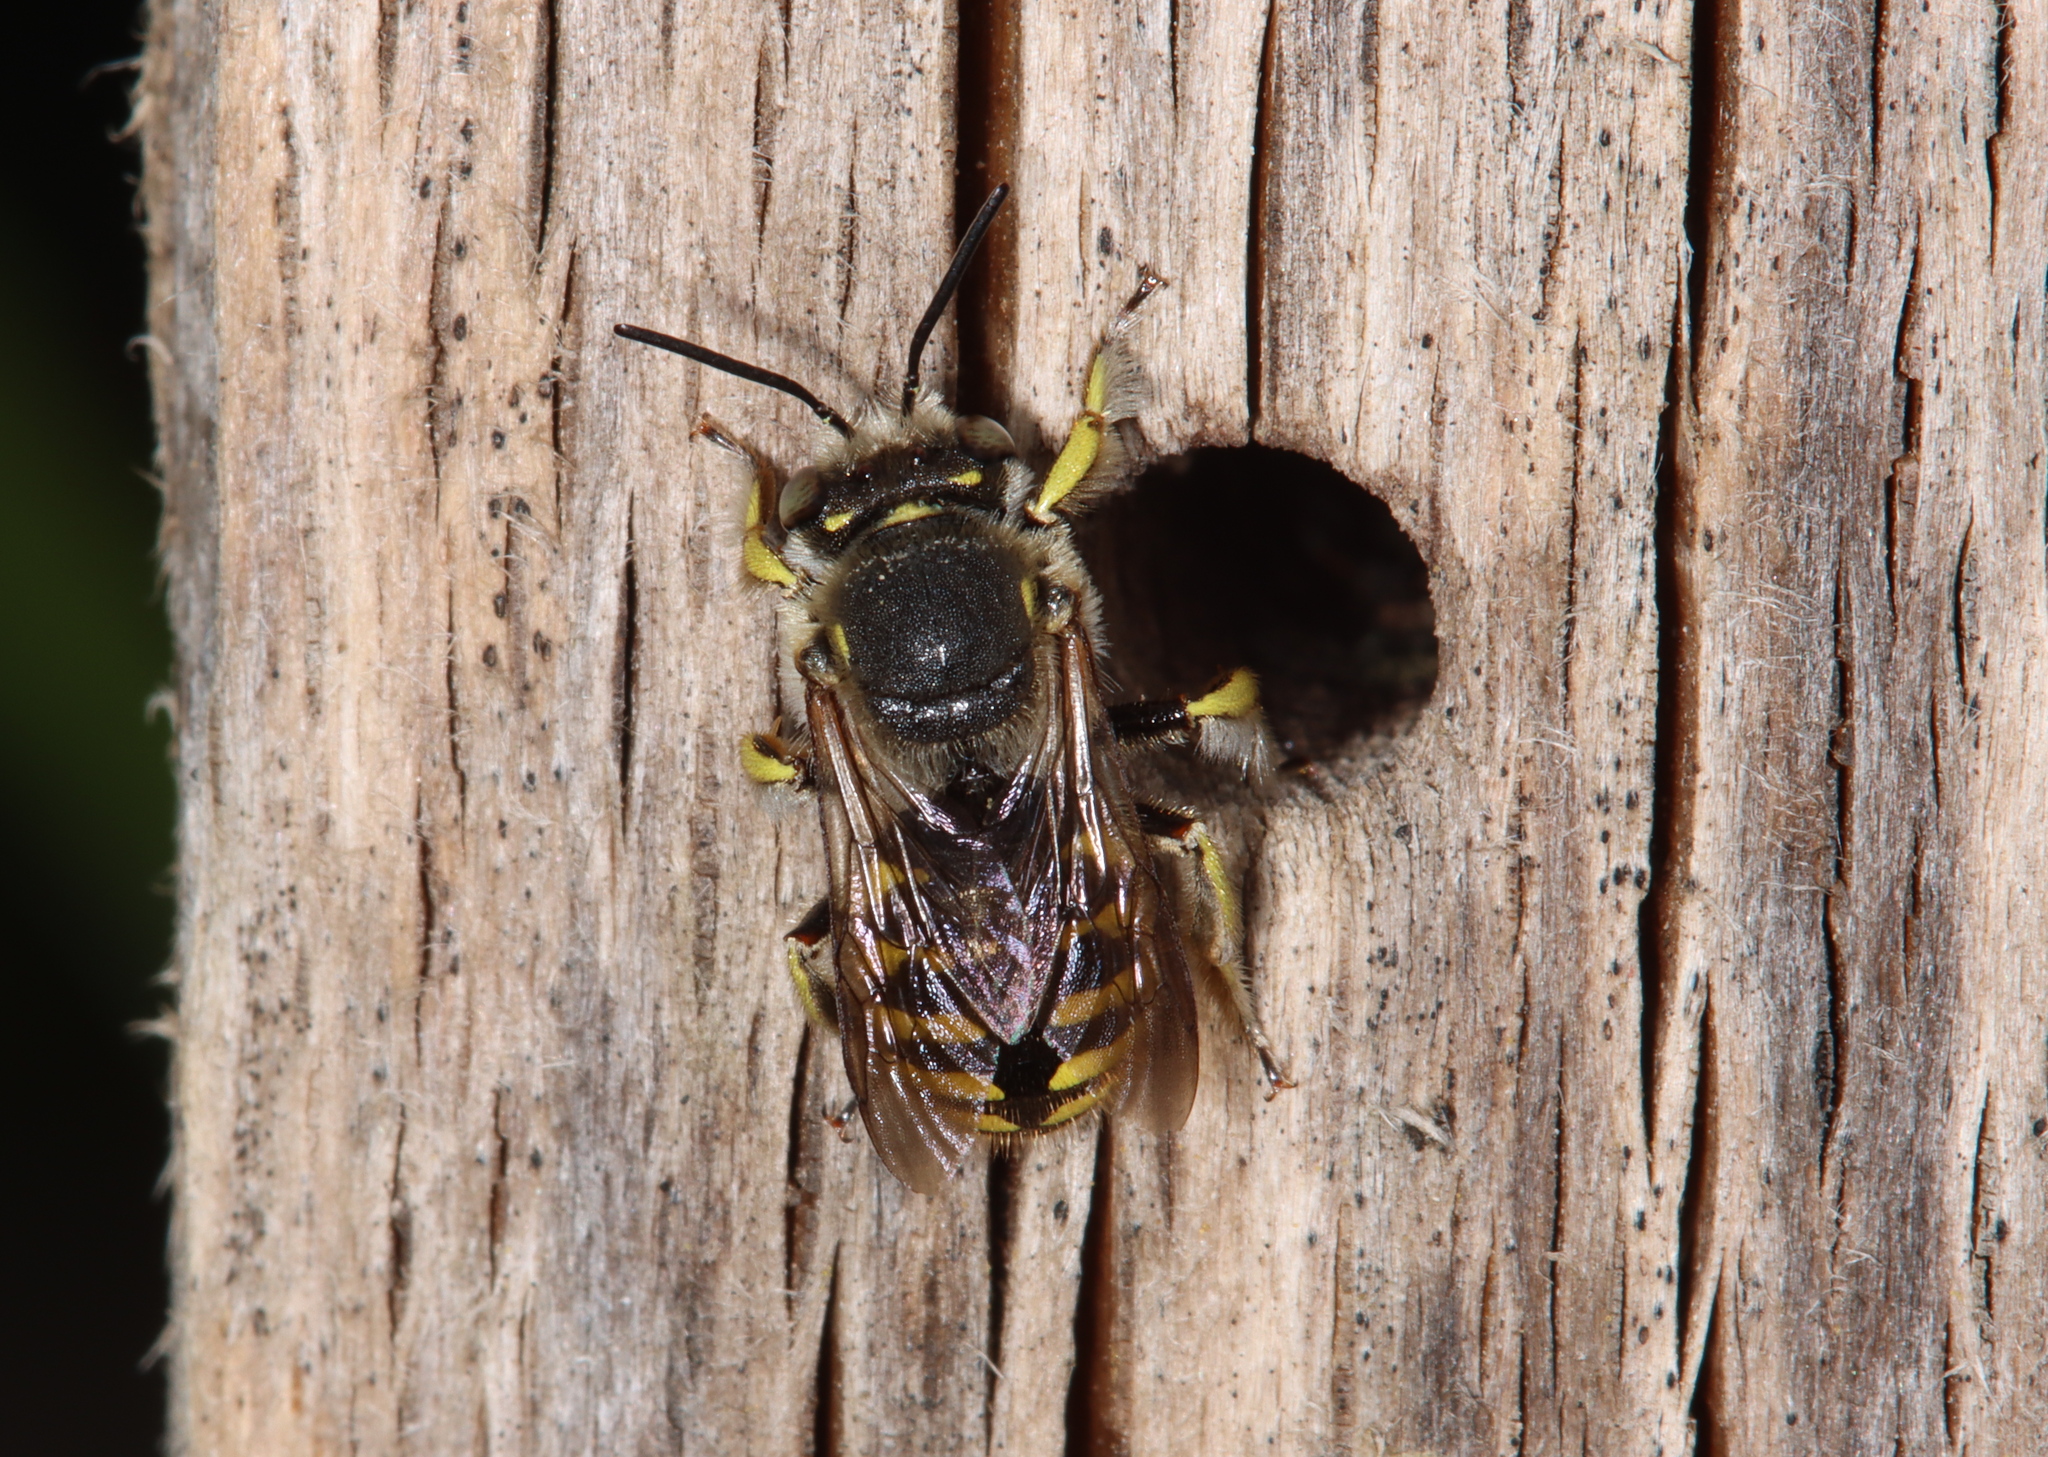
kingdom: Animalia
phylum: Arthropoda
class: Insecta
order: Hymenoptera
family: Megachilidae
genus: Anthidium
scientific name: Anthidium manicatum
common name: Wool carder bee
